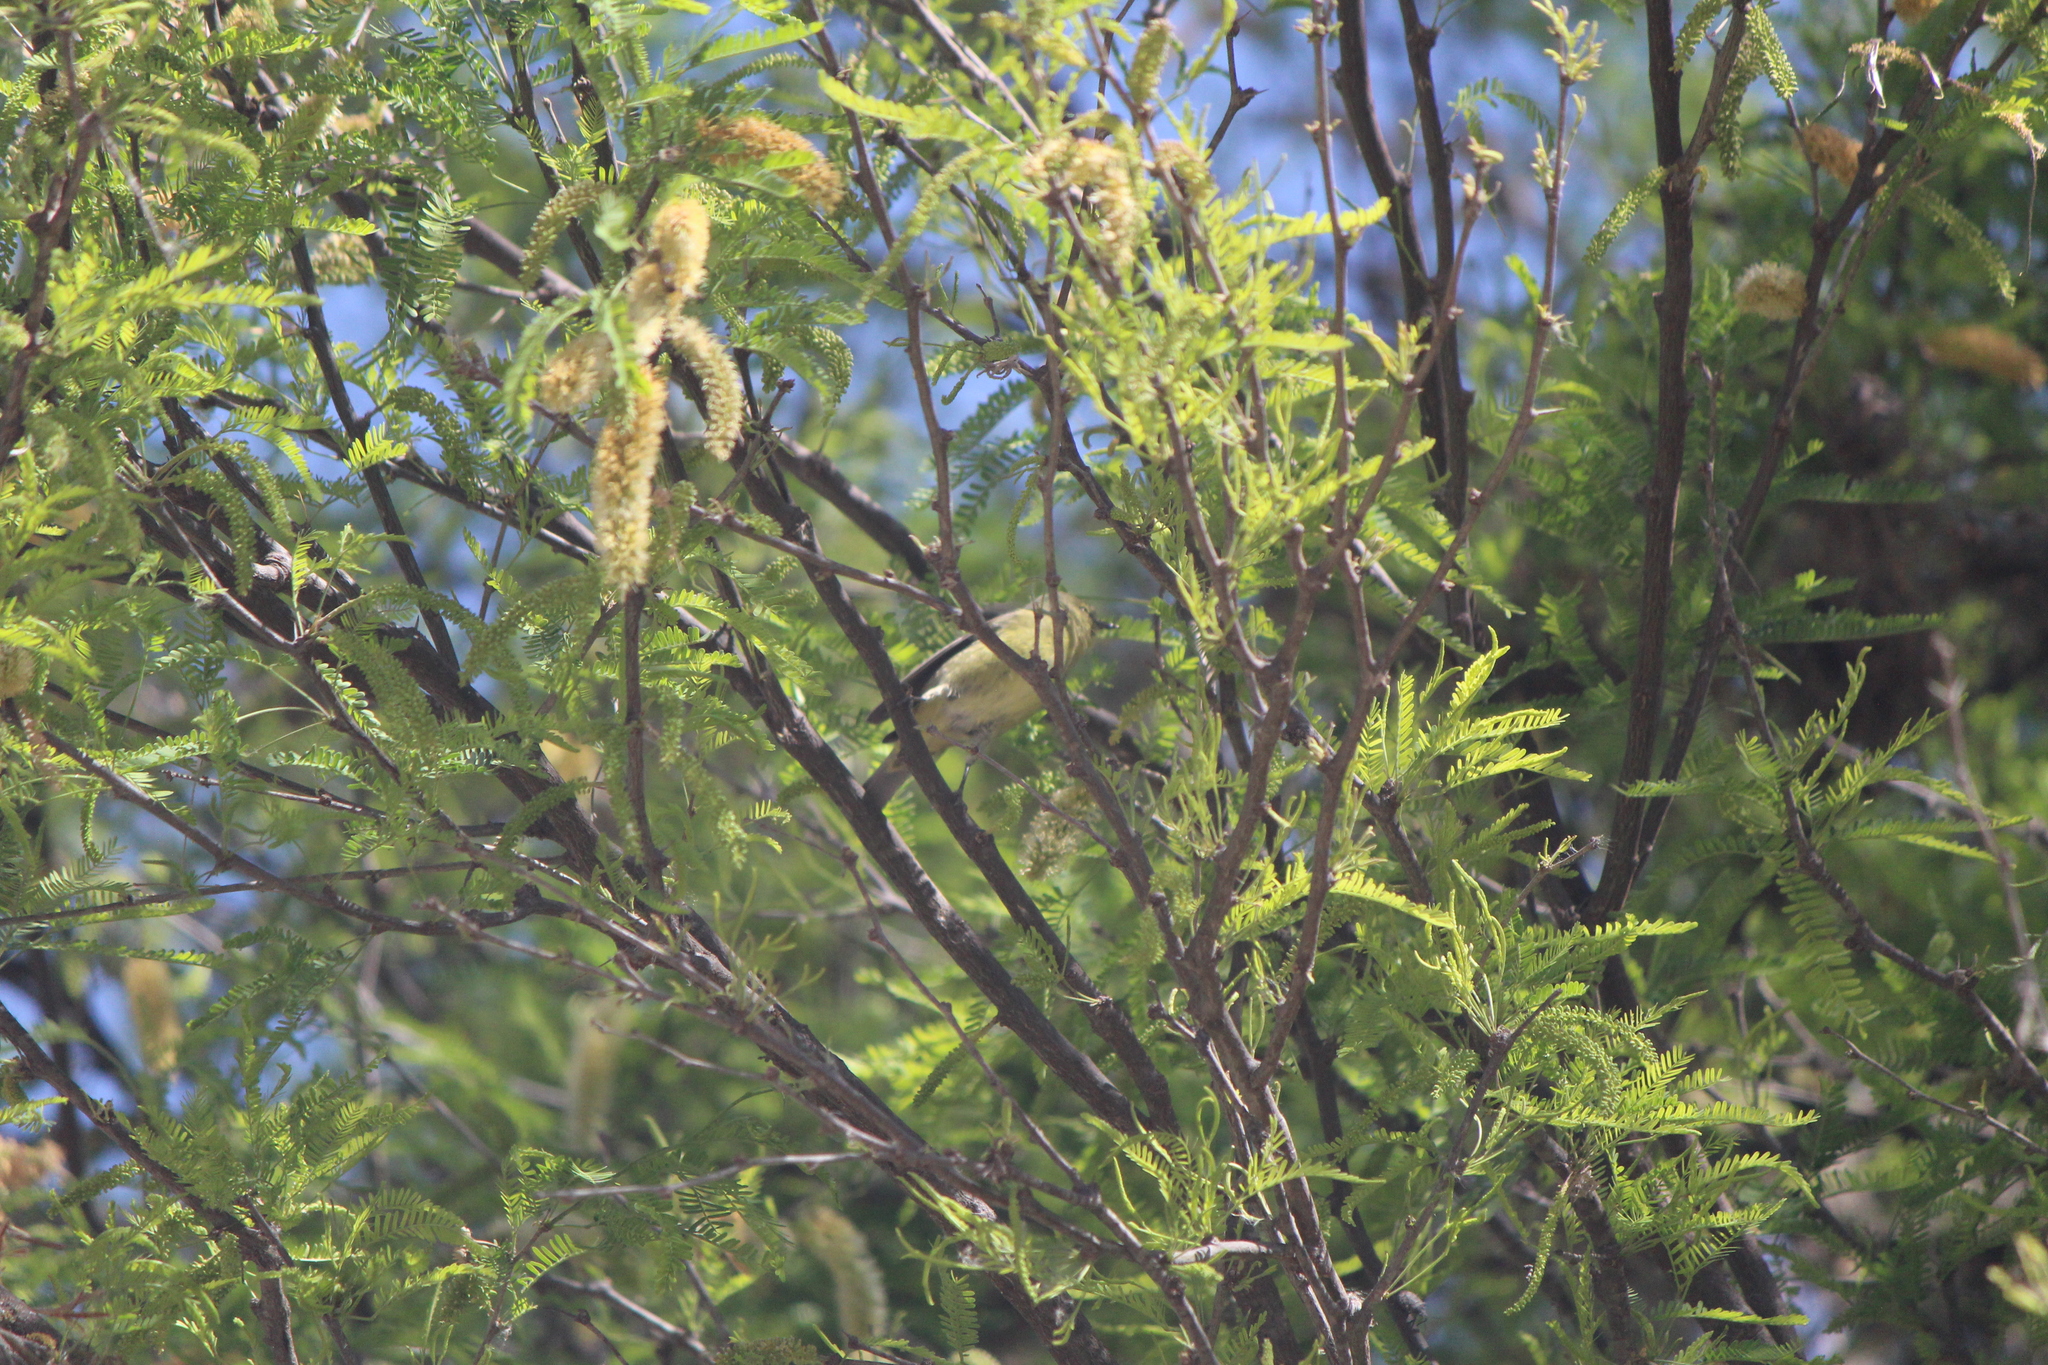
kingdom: Animalia
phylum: Chordata
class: Aves
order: Passeriformes
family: Parulidae
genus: Leiothlypis
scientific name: Leiothlypis celata
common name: Orange-crowned warbler
